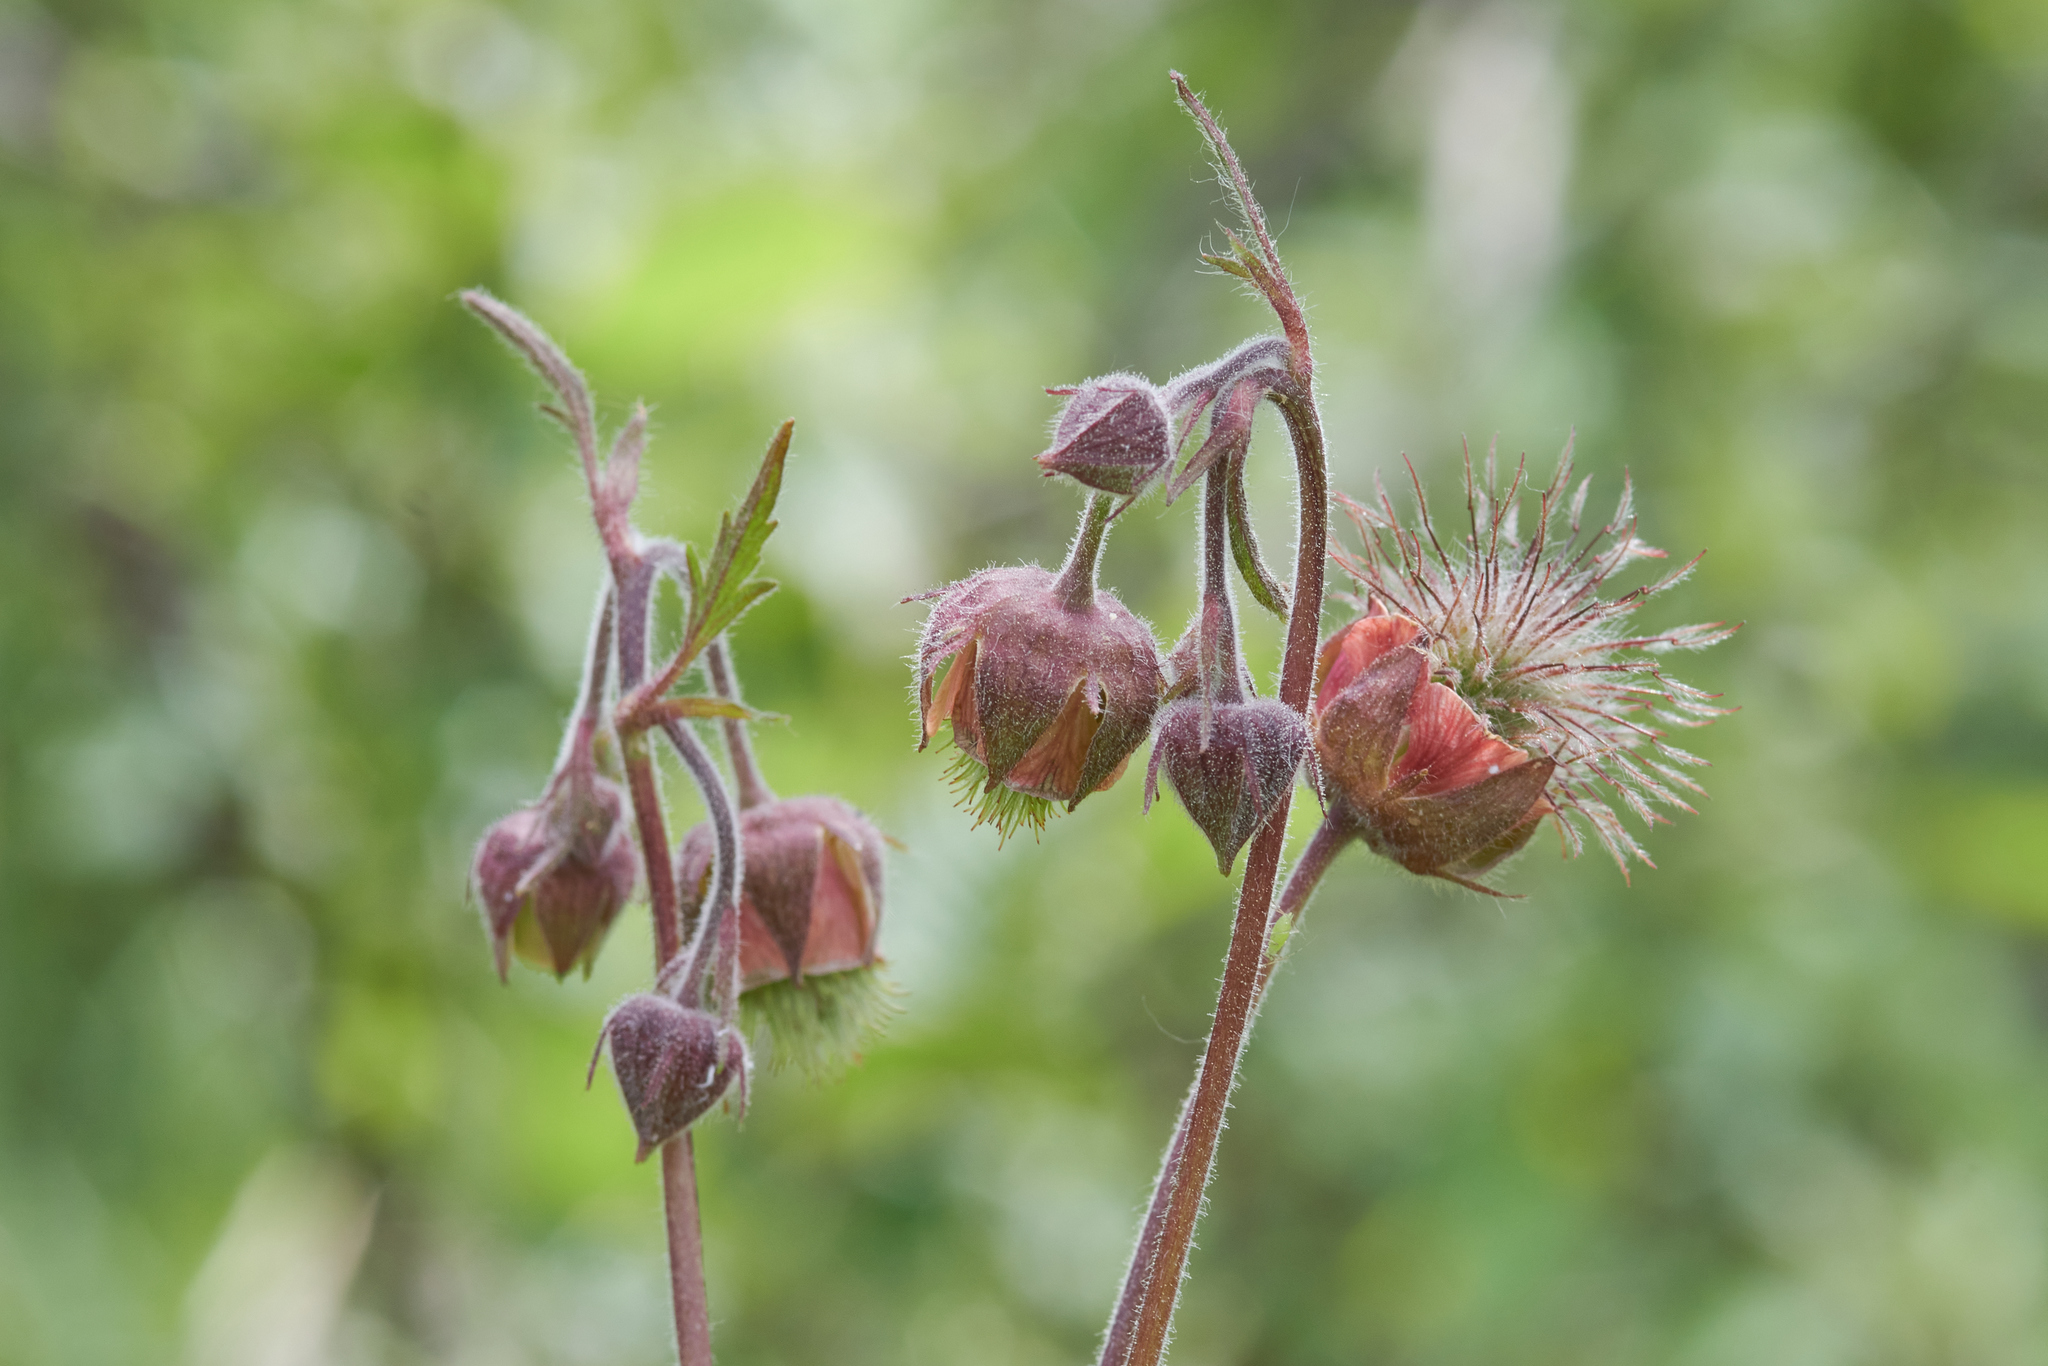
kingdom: Plantae
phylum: Tracheophyta
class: Magnoliopsida
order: Rosales
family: Rosaceae
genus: Geum
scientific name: Geum rivale
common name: Water avens
